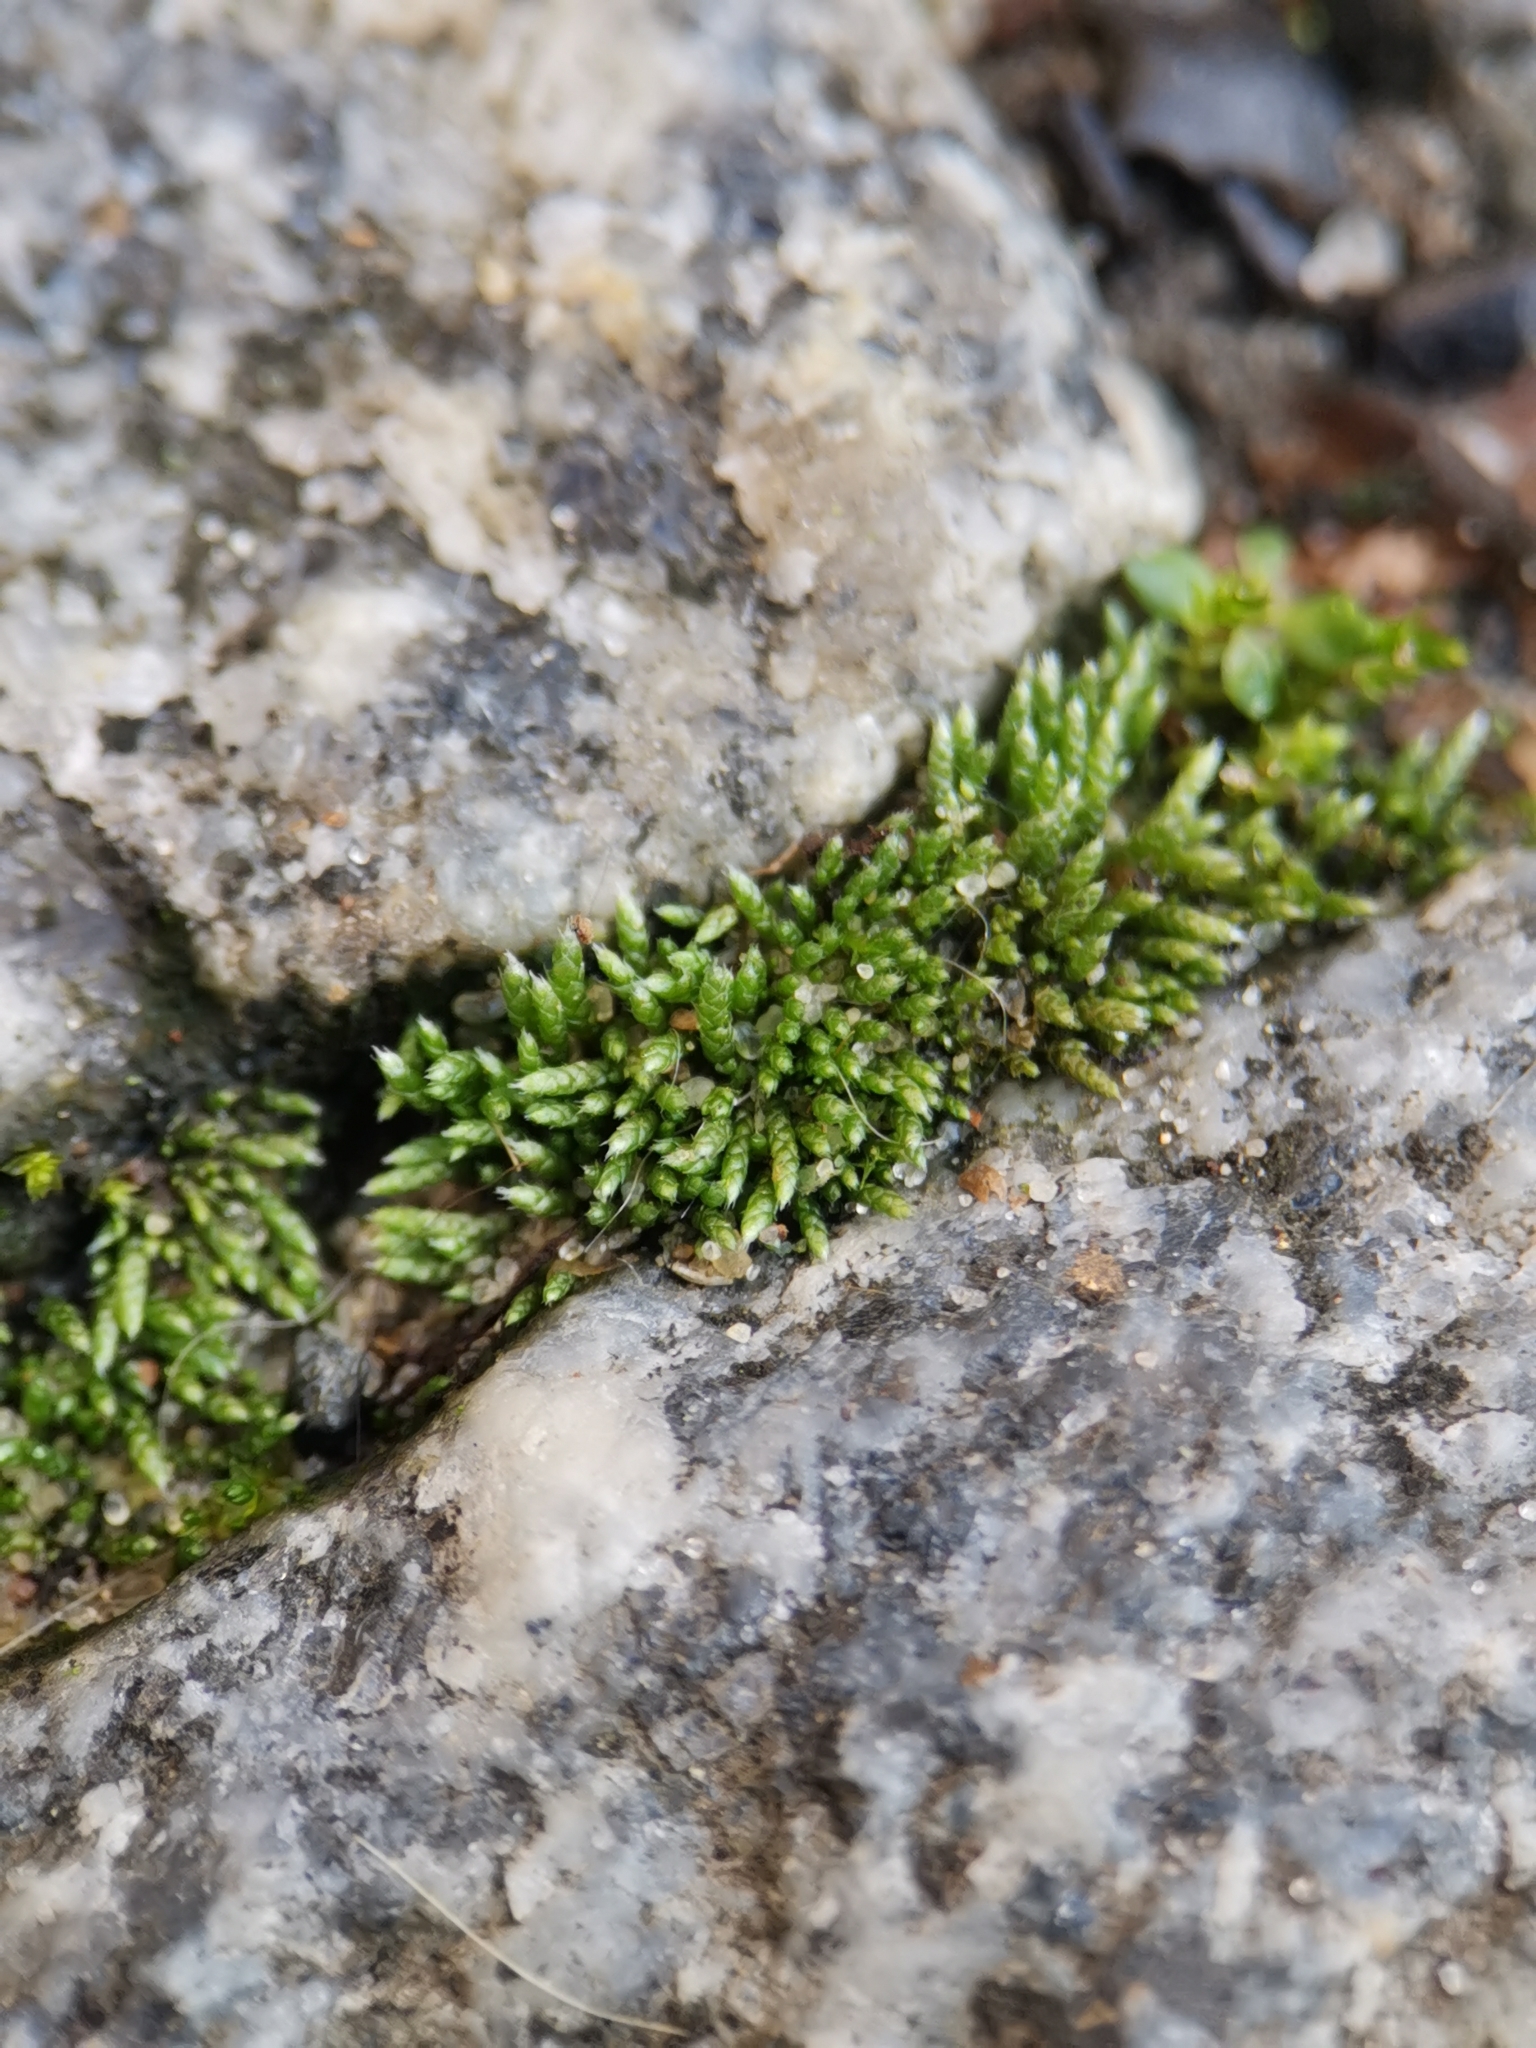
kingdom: Plantae
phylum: Bryophyta
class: Bryopsida
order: Bryales
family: Bryaceae
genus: Bryum
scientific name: Bryum argenteum
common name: Silver-moss
